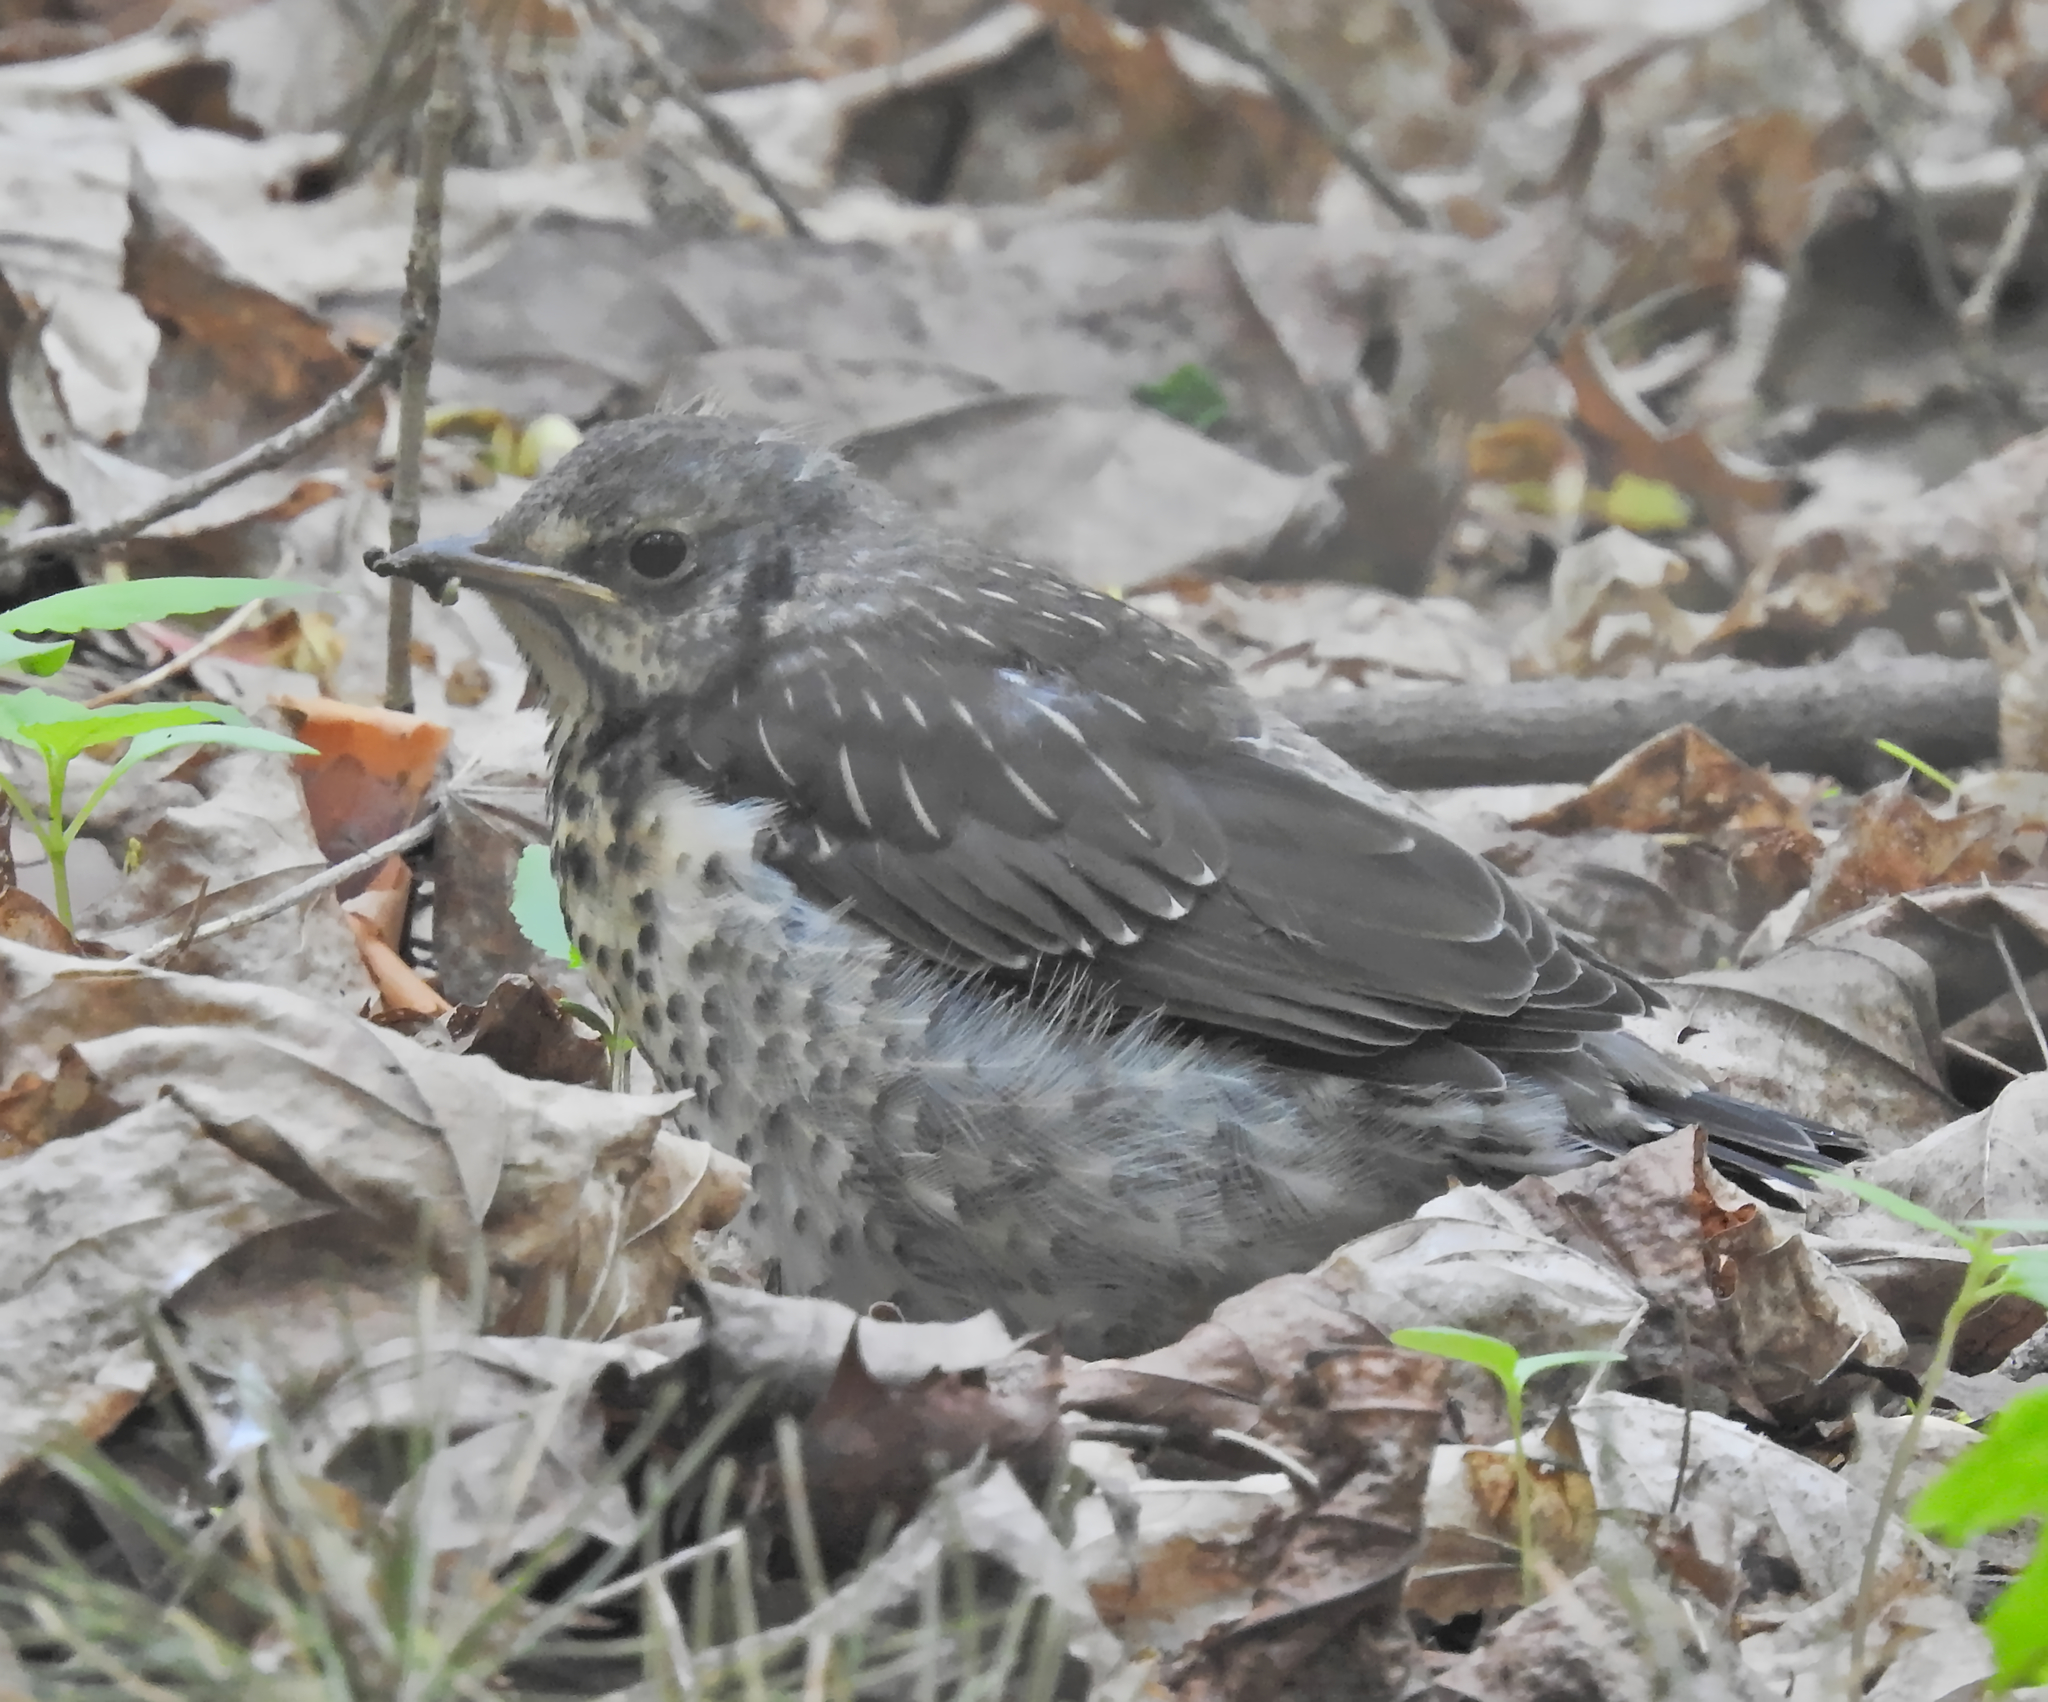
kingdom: Animalia
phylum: Chordata
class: Aves
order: Passeriformes
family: Turdidae
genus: Turdus
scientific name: Turdus pilaris
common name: Fieldfare
